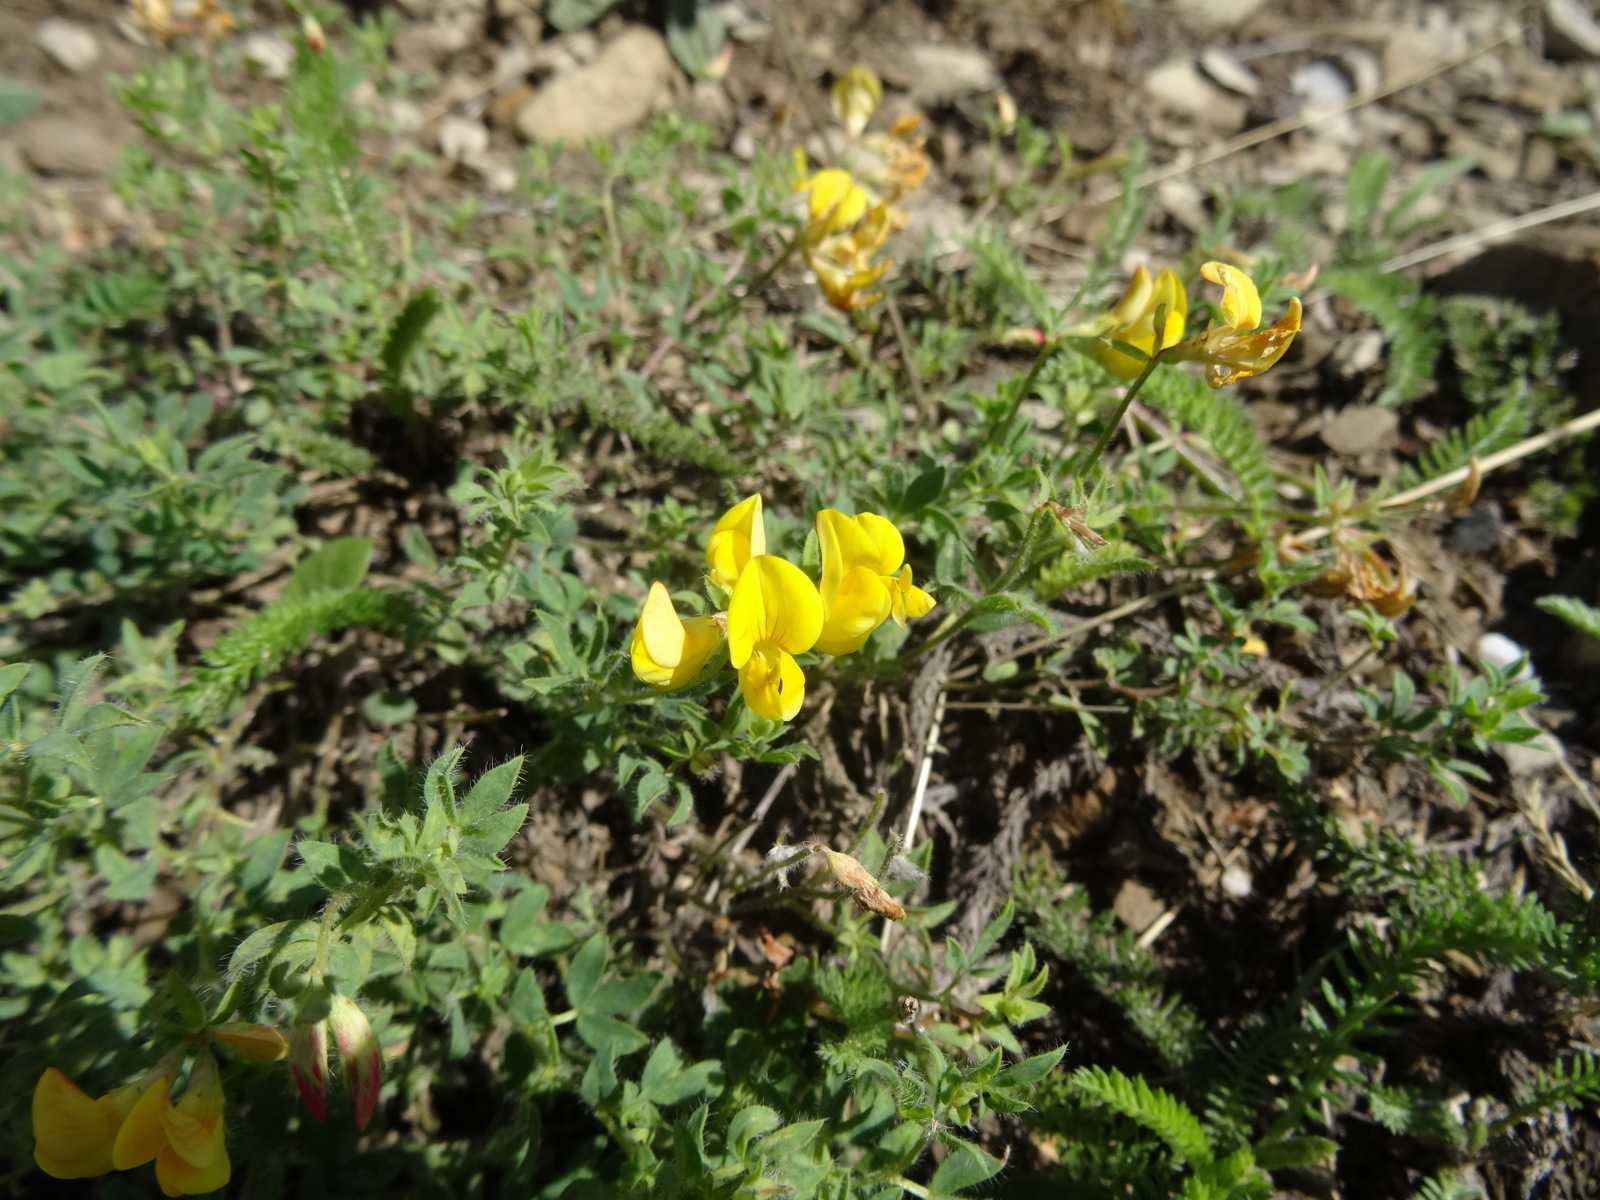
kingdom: Plantae
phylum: Tracheophyta
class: Magnoliopsida
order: Fabales
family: Fabaceae
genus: Lotus
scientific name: Lotus alpinus
